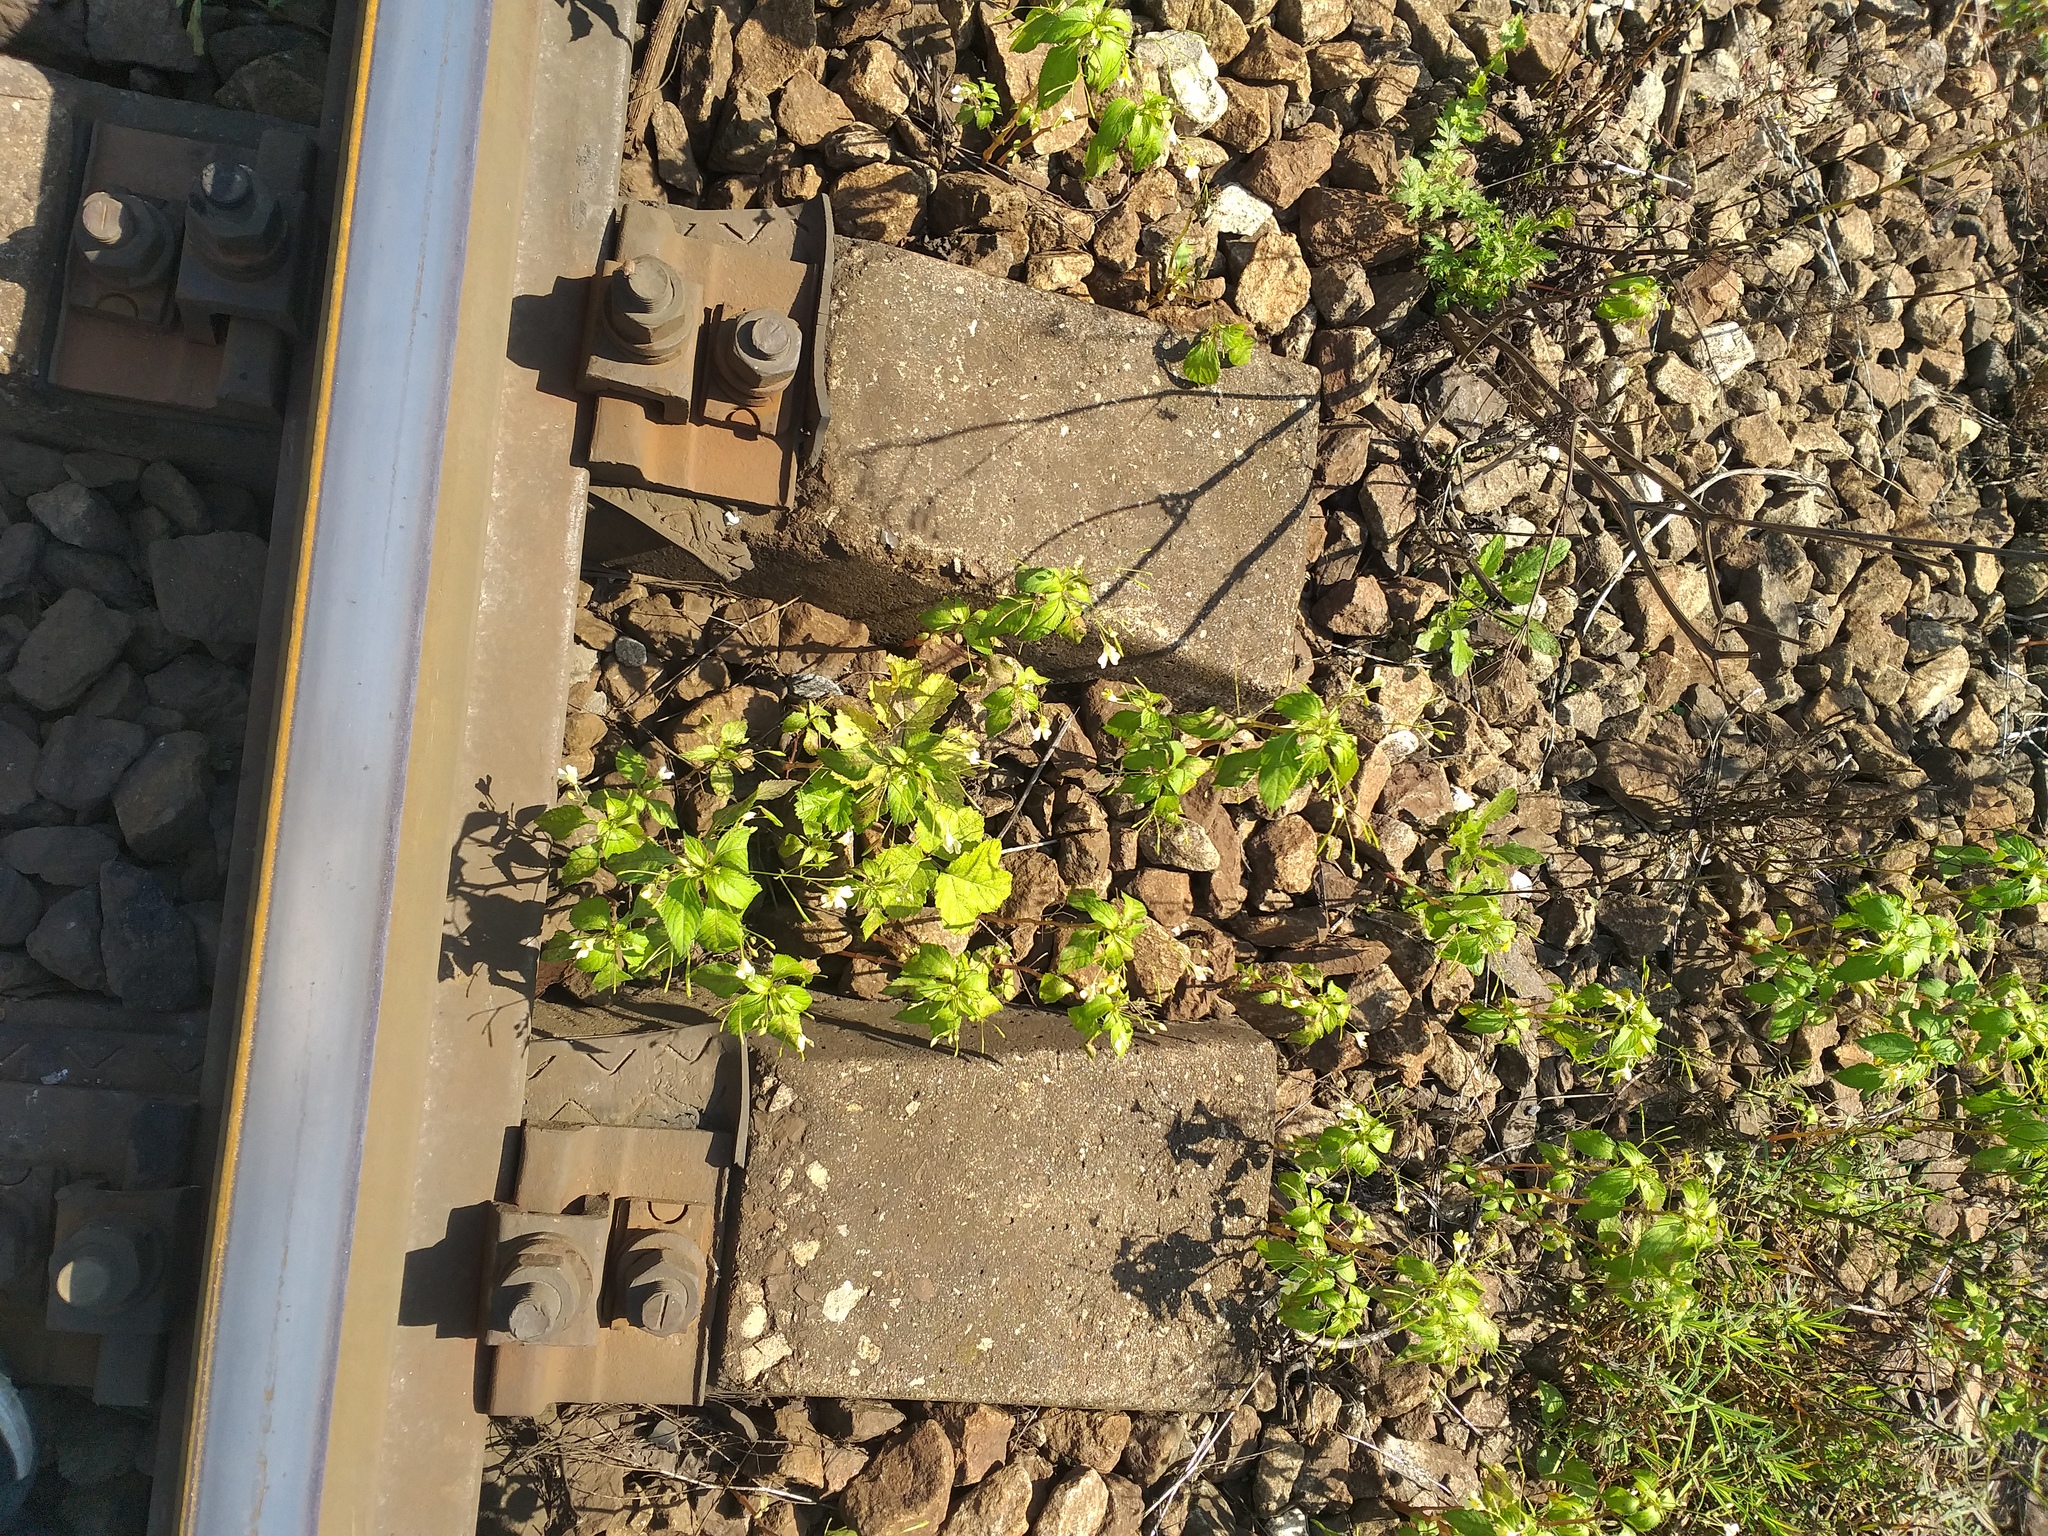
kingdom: Plantae
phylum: Tracheophyta
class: Magnoliopsida
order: Ericales
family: Balsaminaceae
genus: Impatiens
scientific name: Impatiens parviflora
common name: Small balsam
